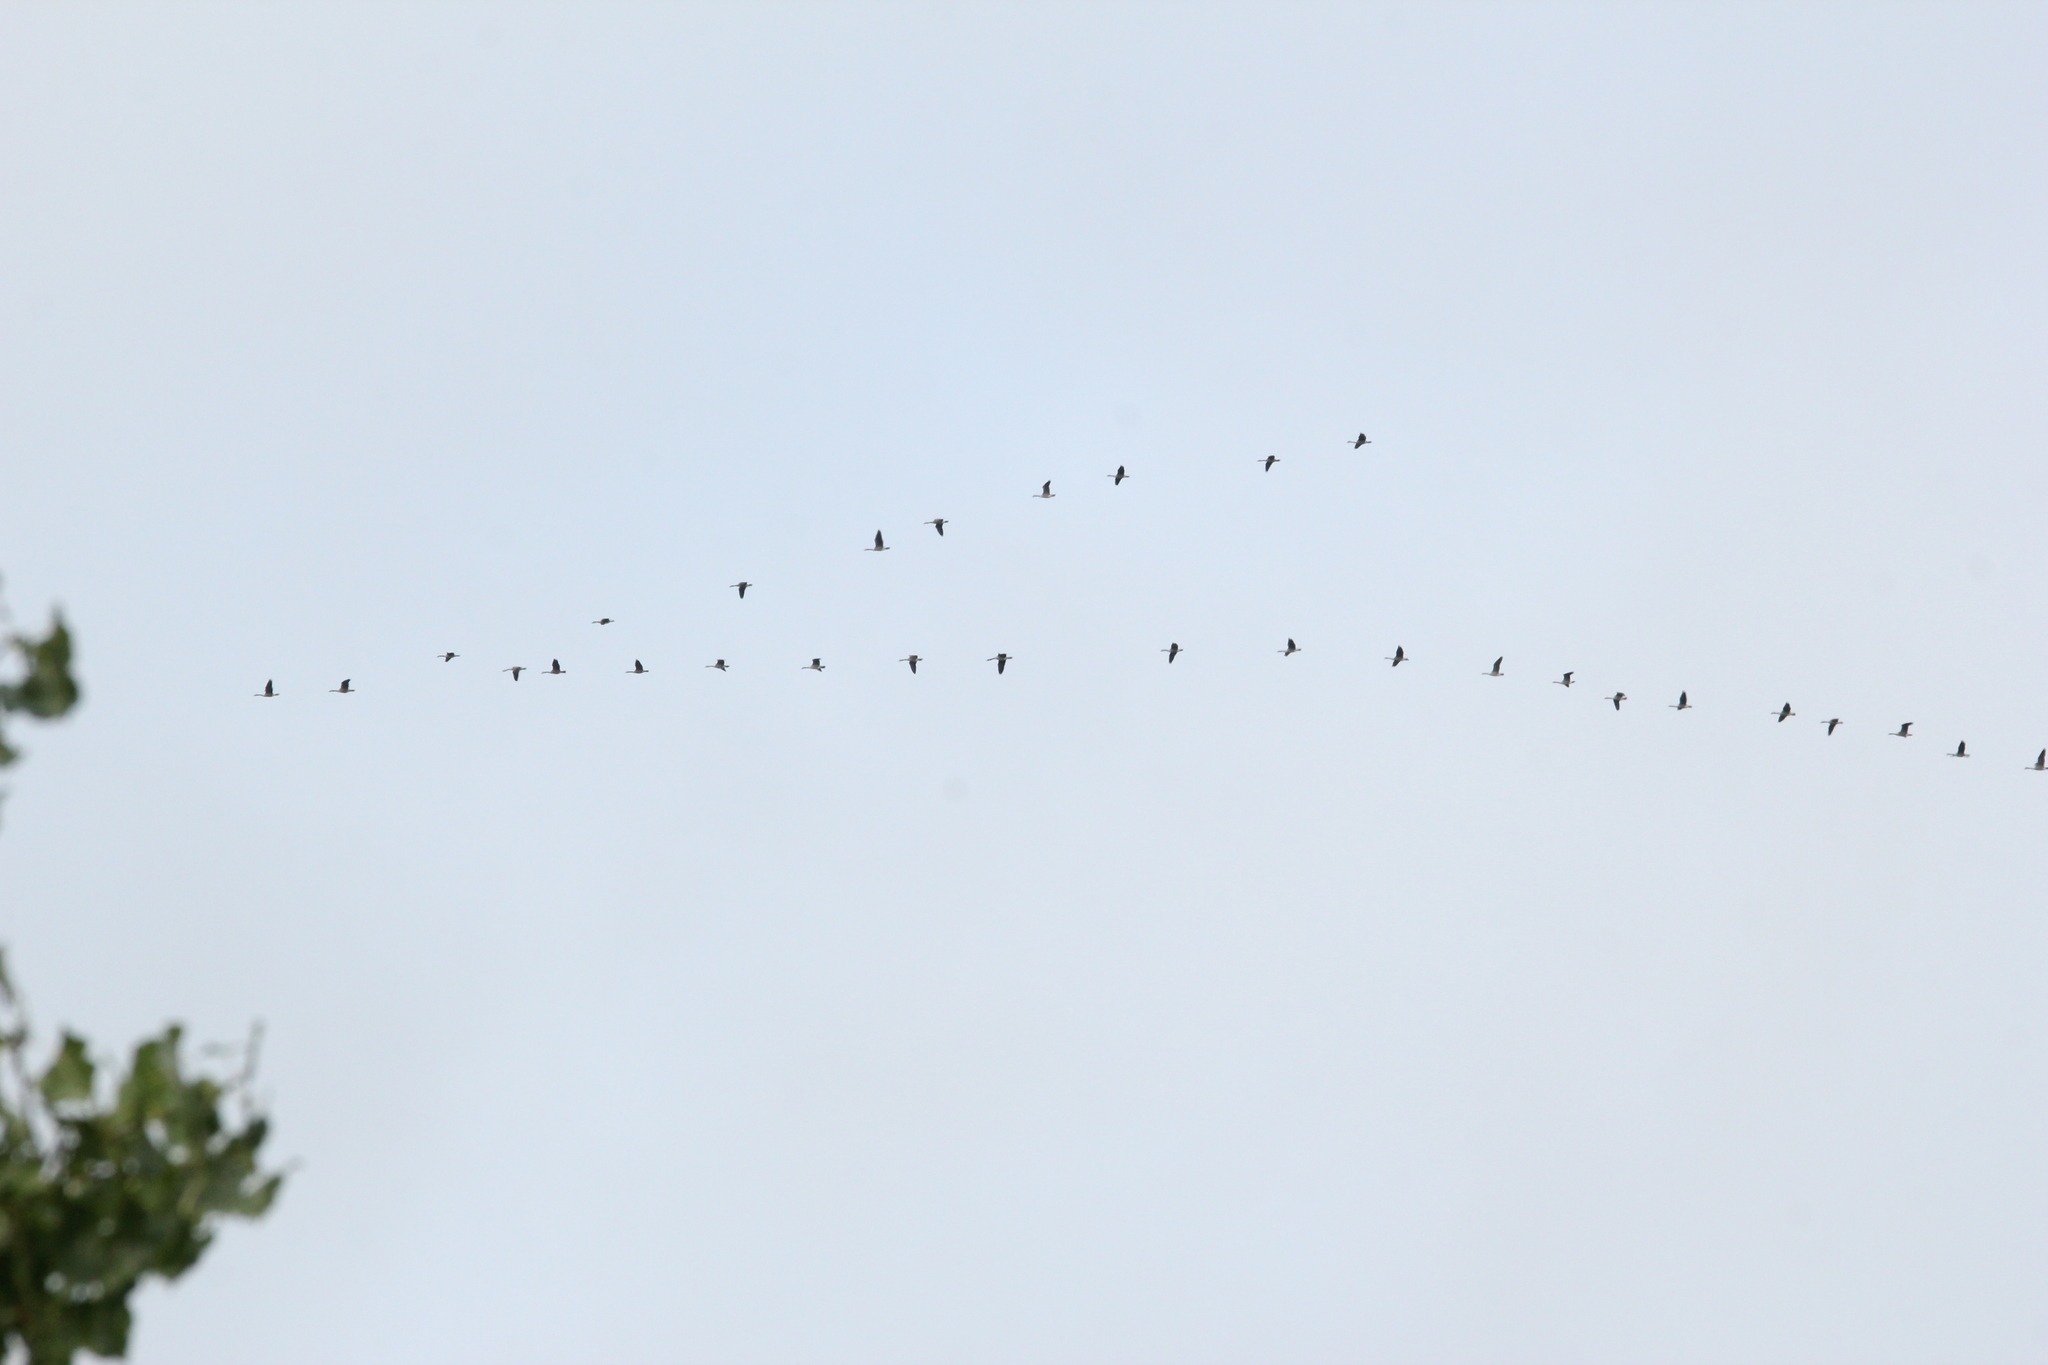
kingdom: Animalia
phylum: Chordata
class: Aves
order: Anseriformes
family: Anatidae
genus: Branta
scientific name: Branta canadensis
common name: Canada goose
